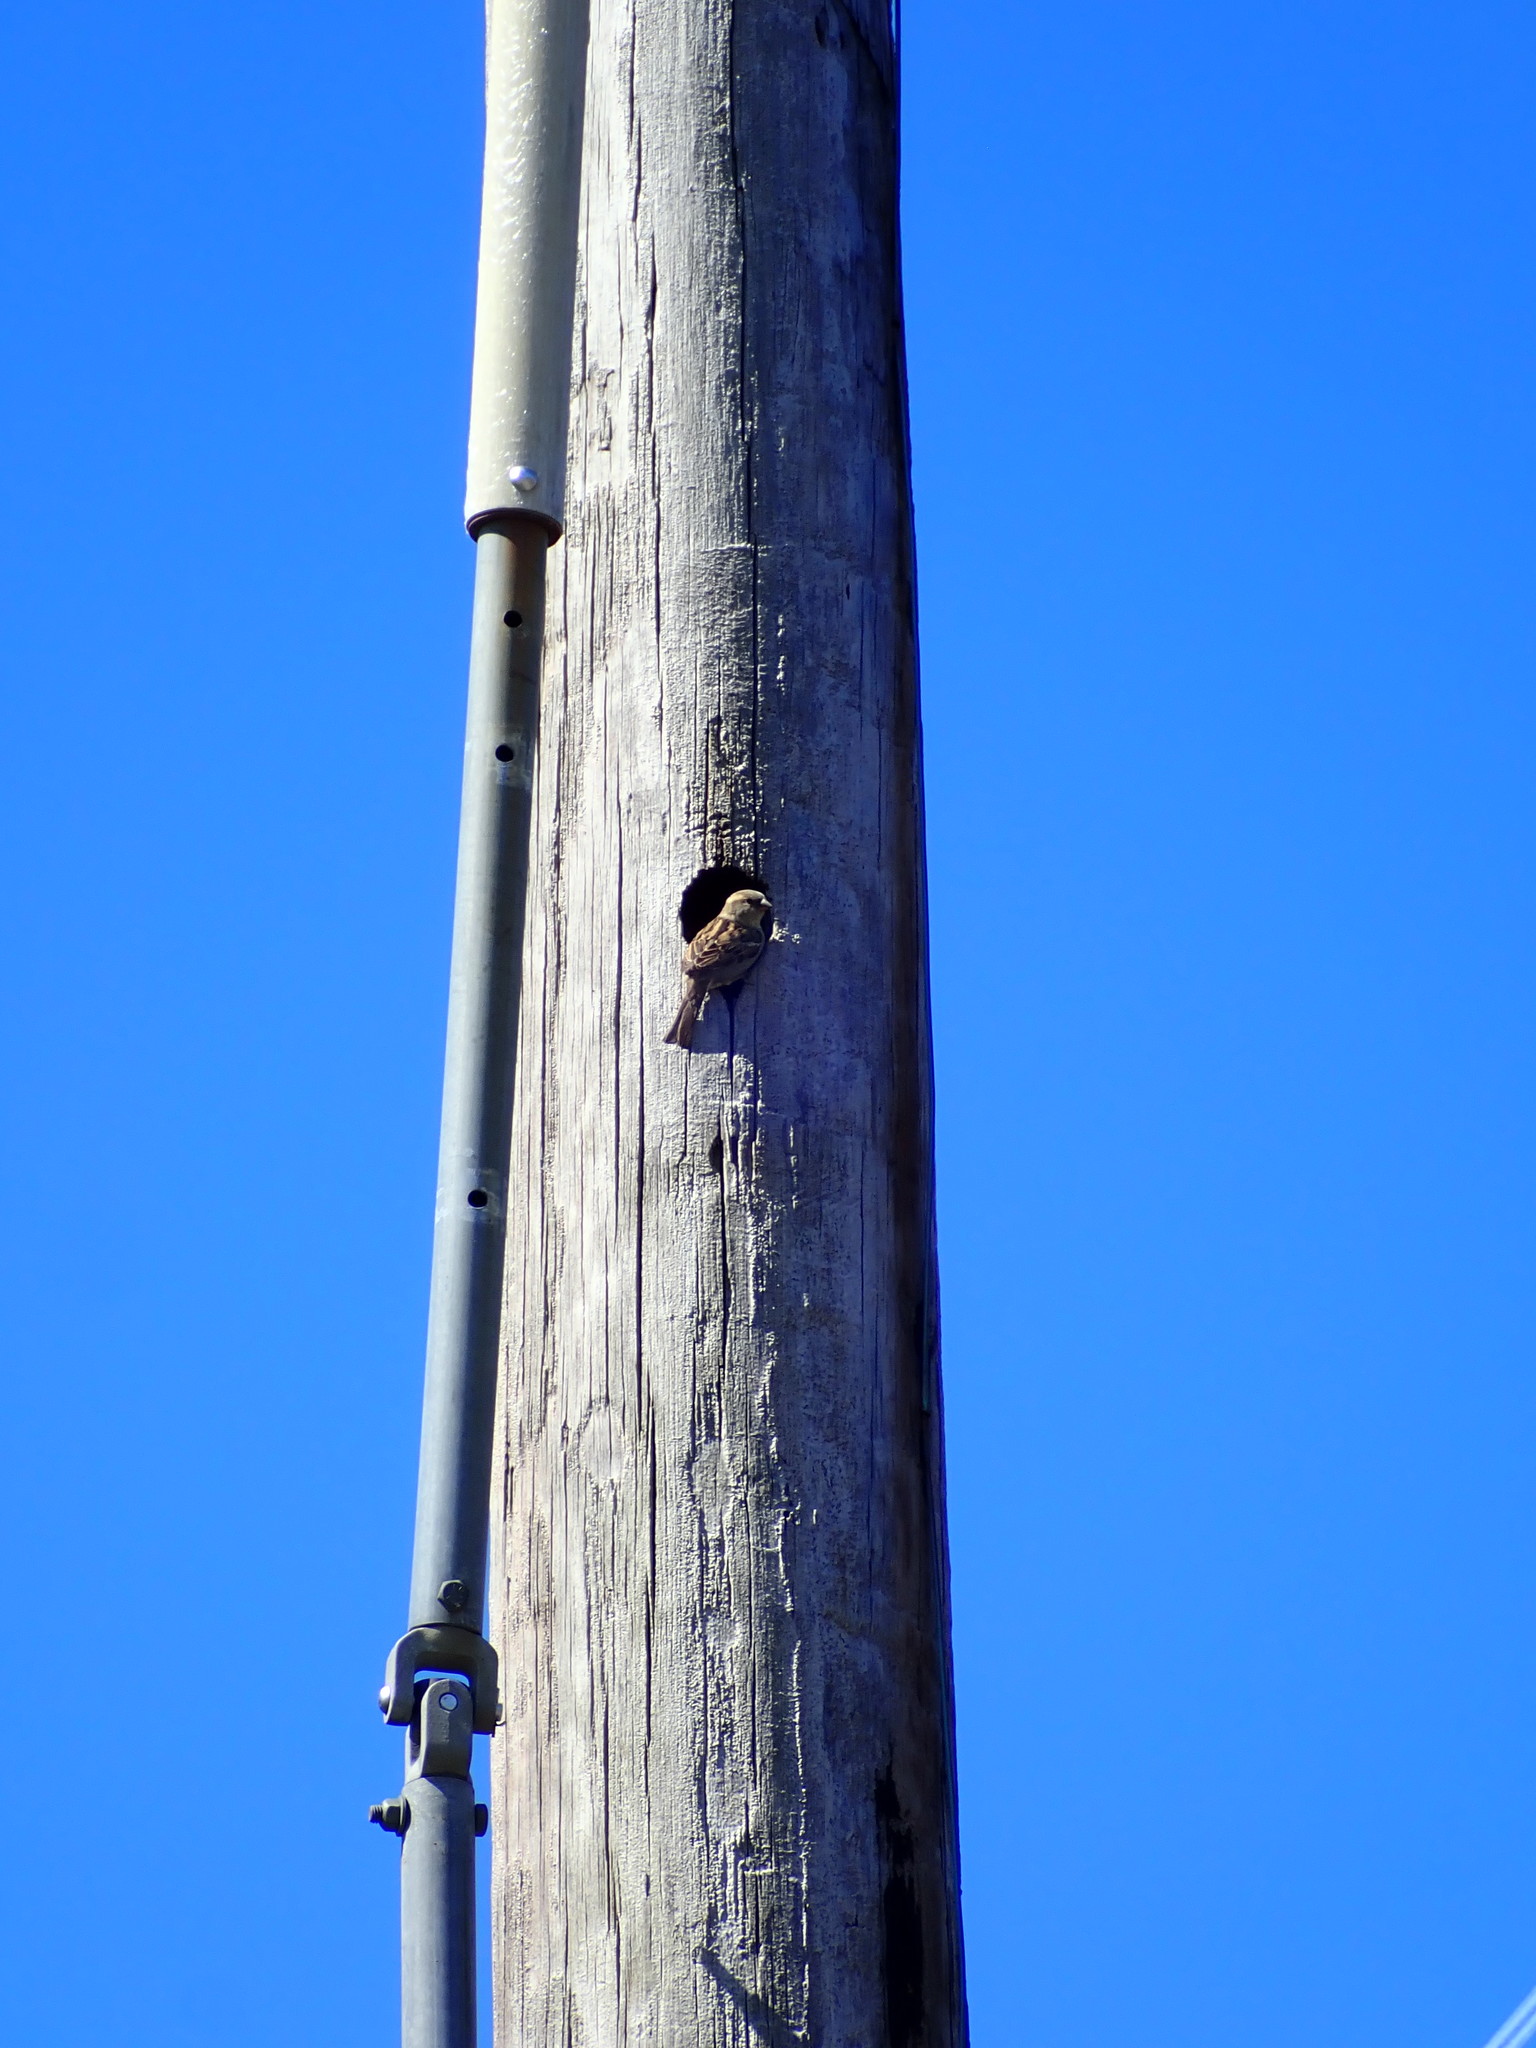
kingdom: Animalia
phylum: Chordata
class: Aves
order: Passeriformes
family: Passeridae
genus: Passer
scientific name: Passer domesticus
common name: House sparrow
